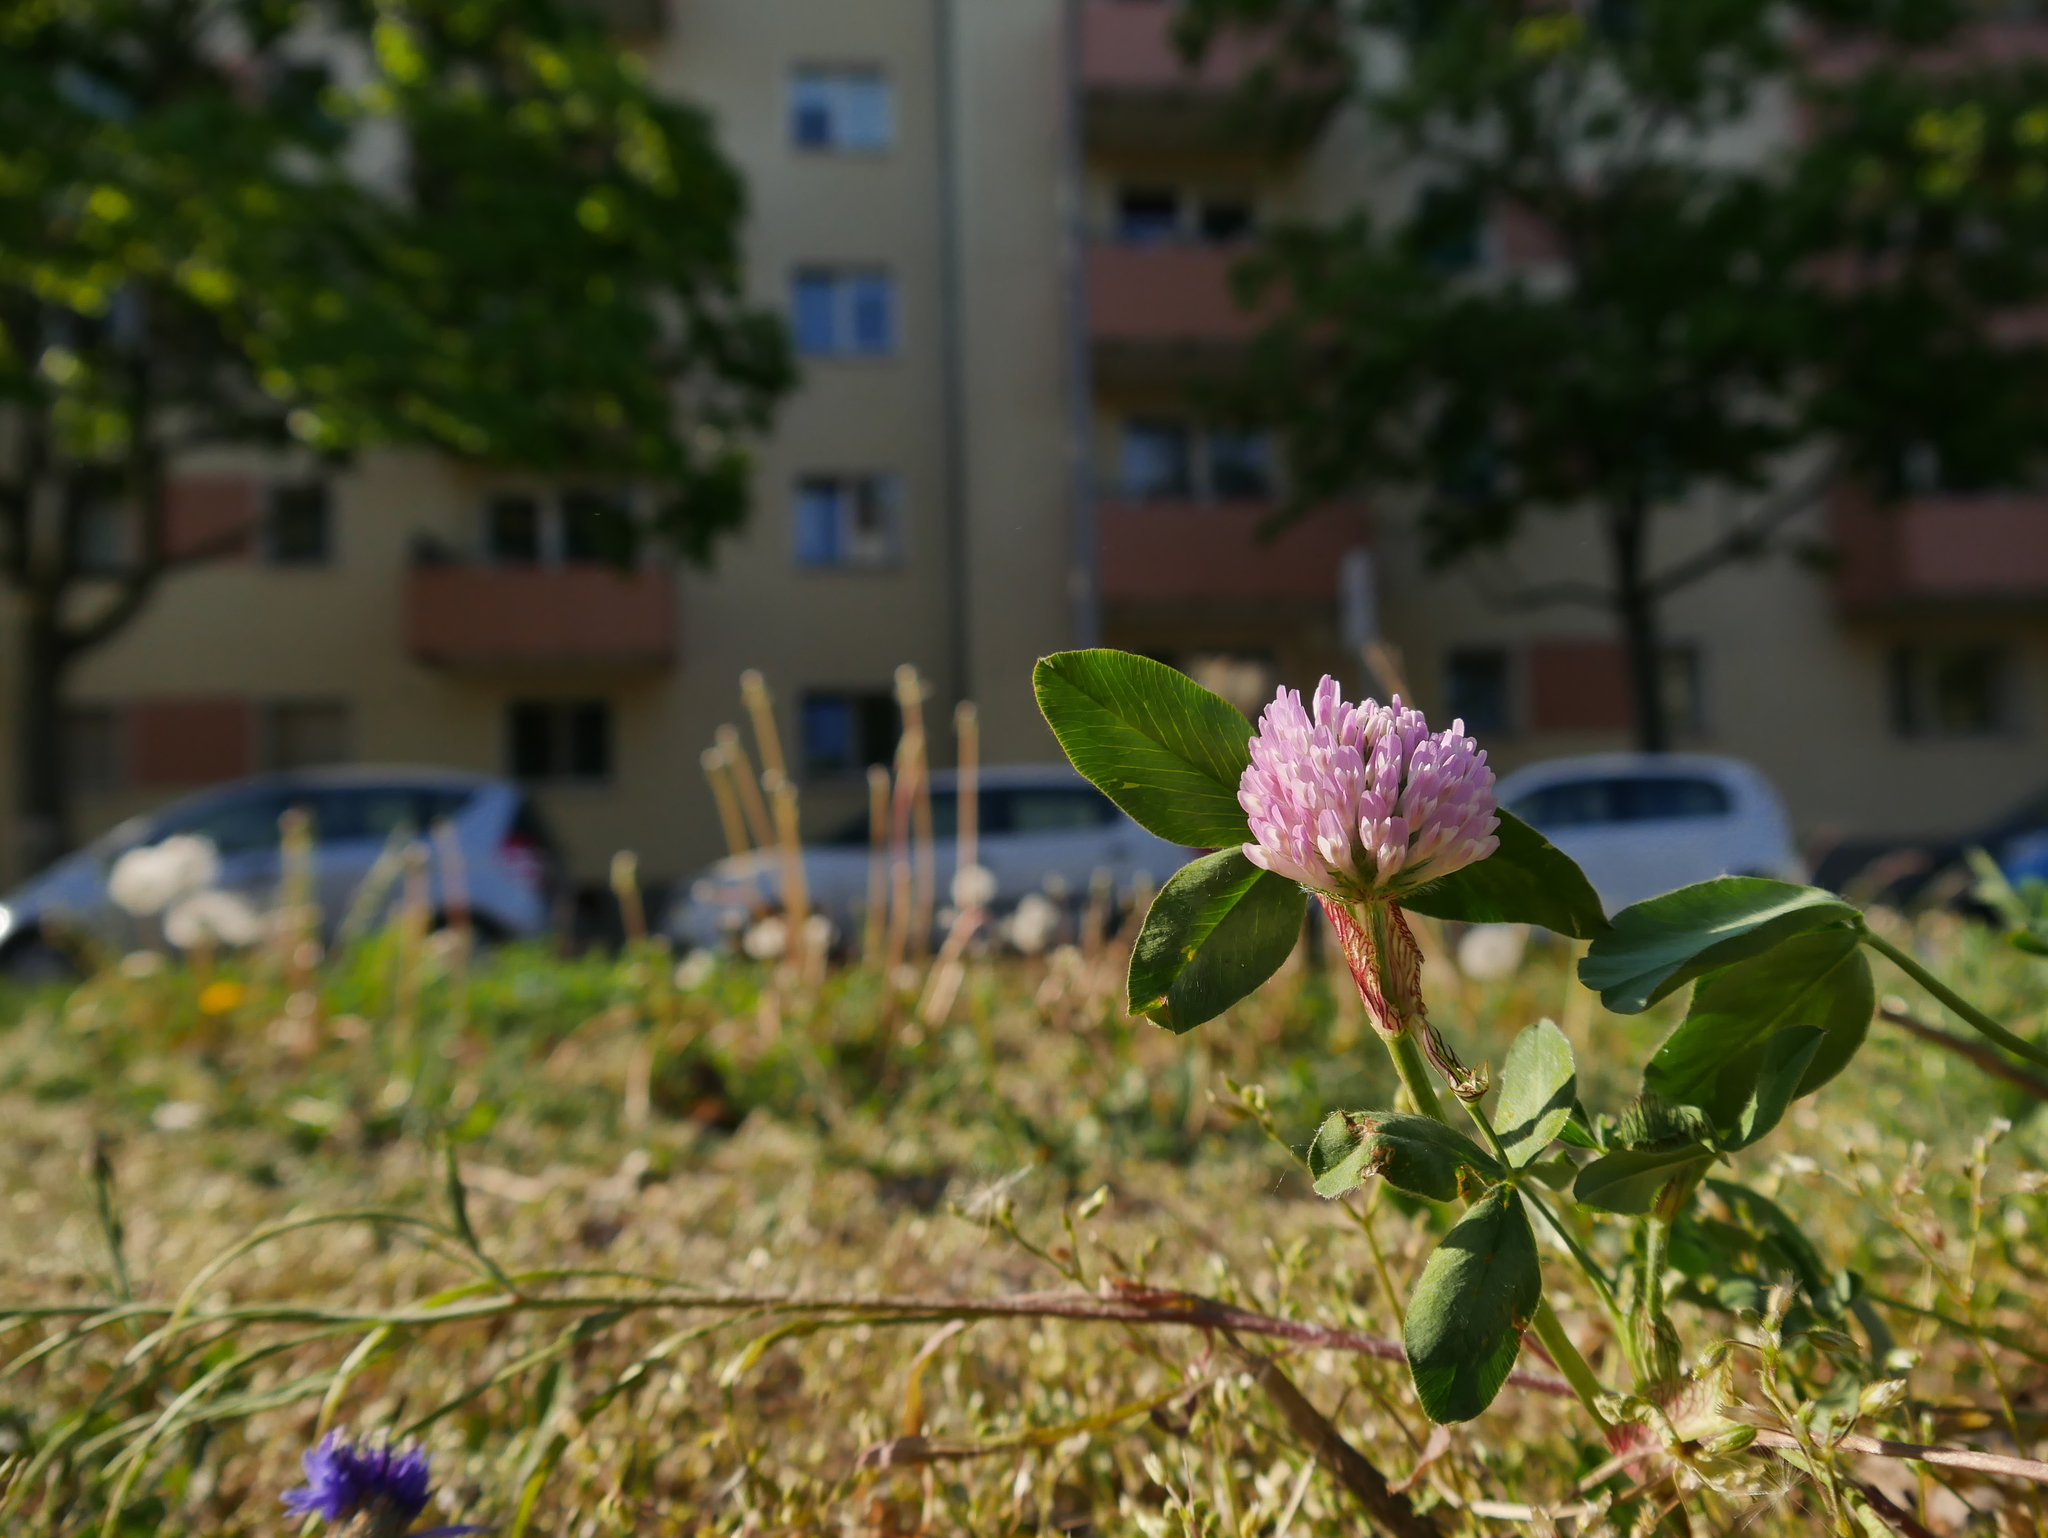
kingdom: Plantae
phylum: Tracheophyta
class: Magnoliopsida
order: Fabales
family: Fabaceae
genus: Trifolium
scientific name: Trifolium pratense
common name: Red clover
